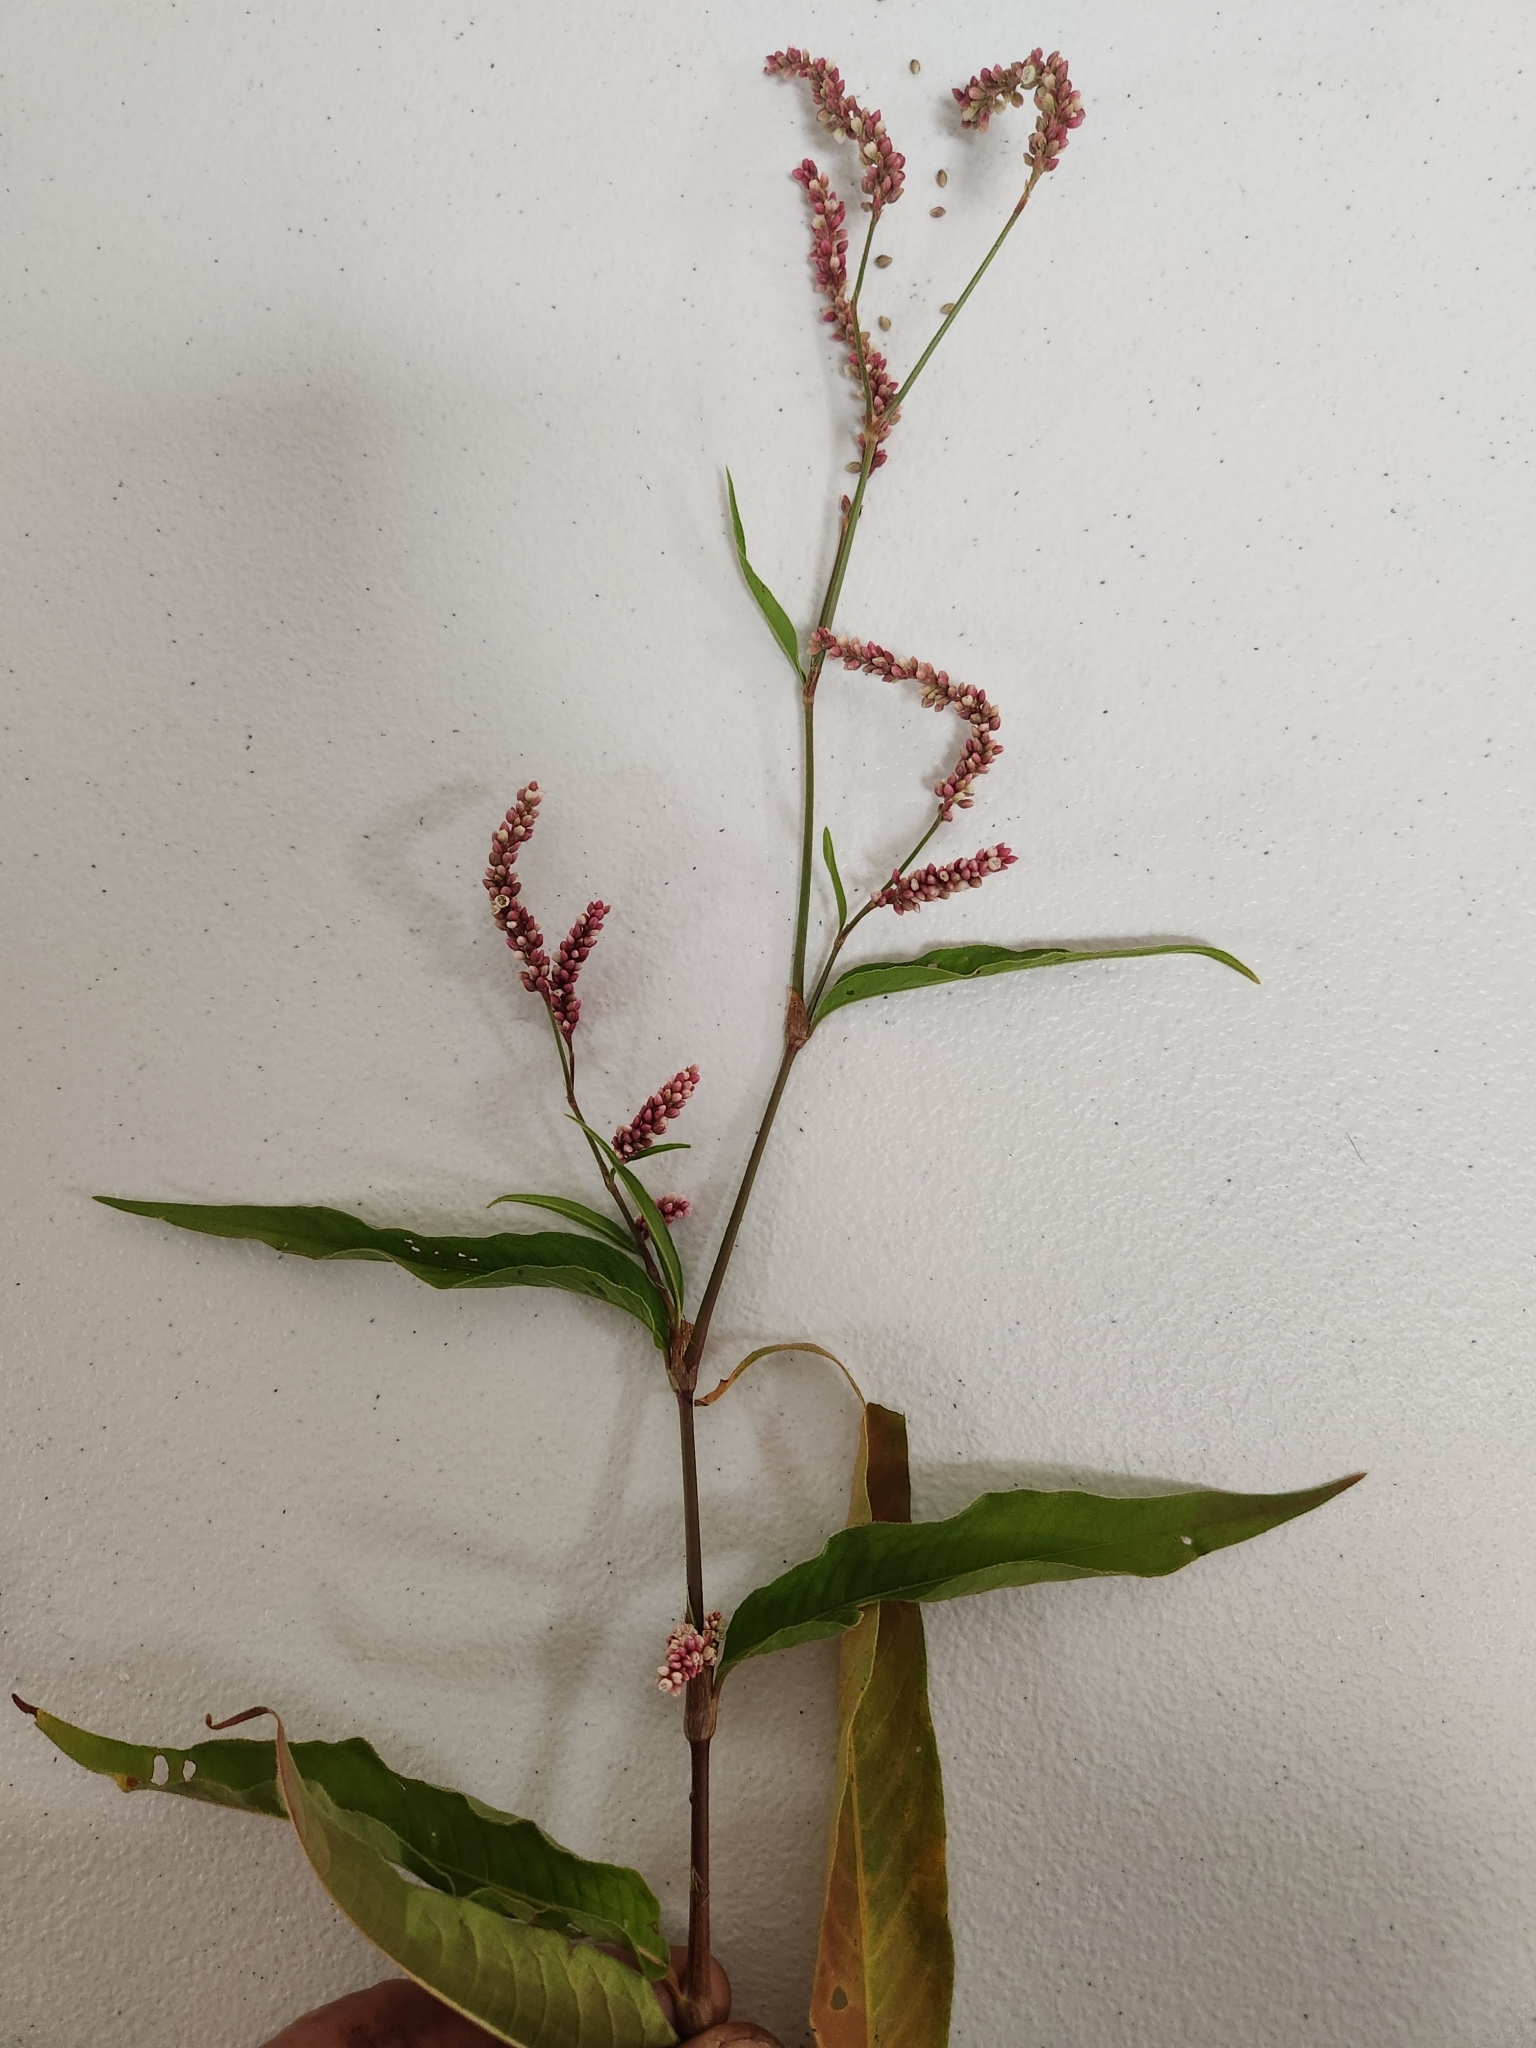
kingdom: Plantae
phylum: Tracheophyta
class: Magnoliopsida
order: Caryophyllales
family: Polygonaceae
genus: Persicaria
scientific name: Persicaria extremiorientalis
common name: Far-eastern smartweed
